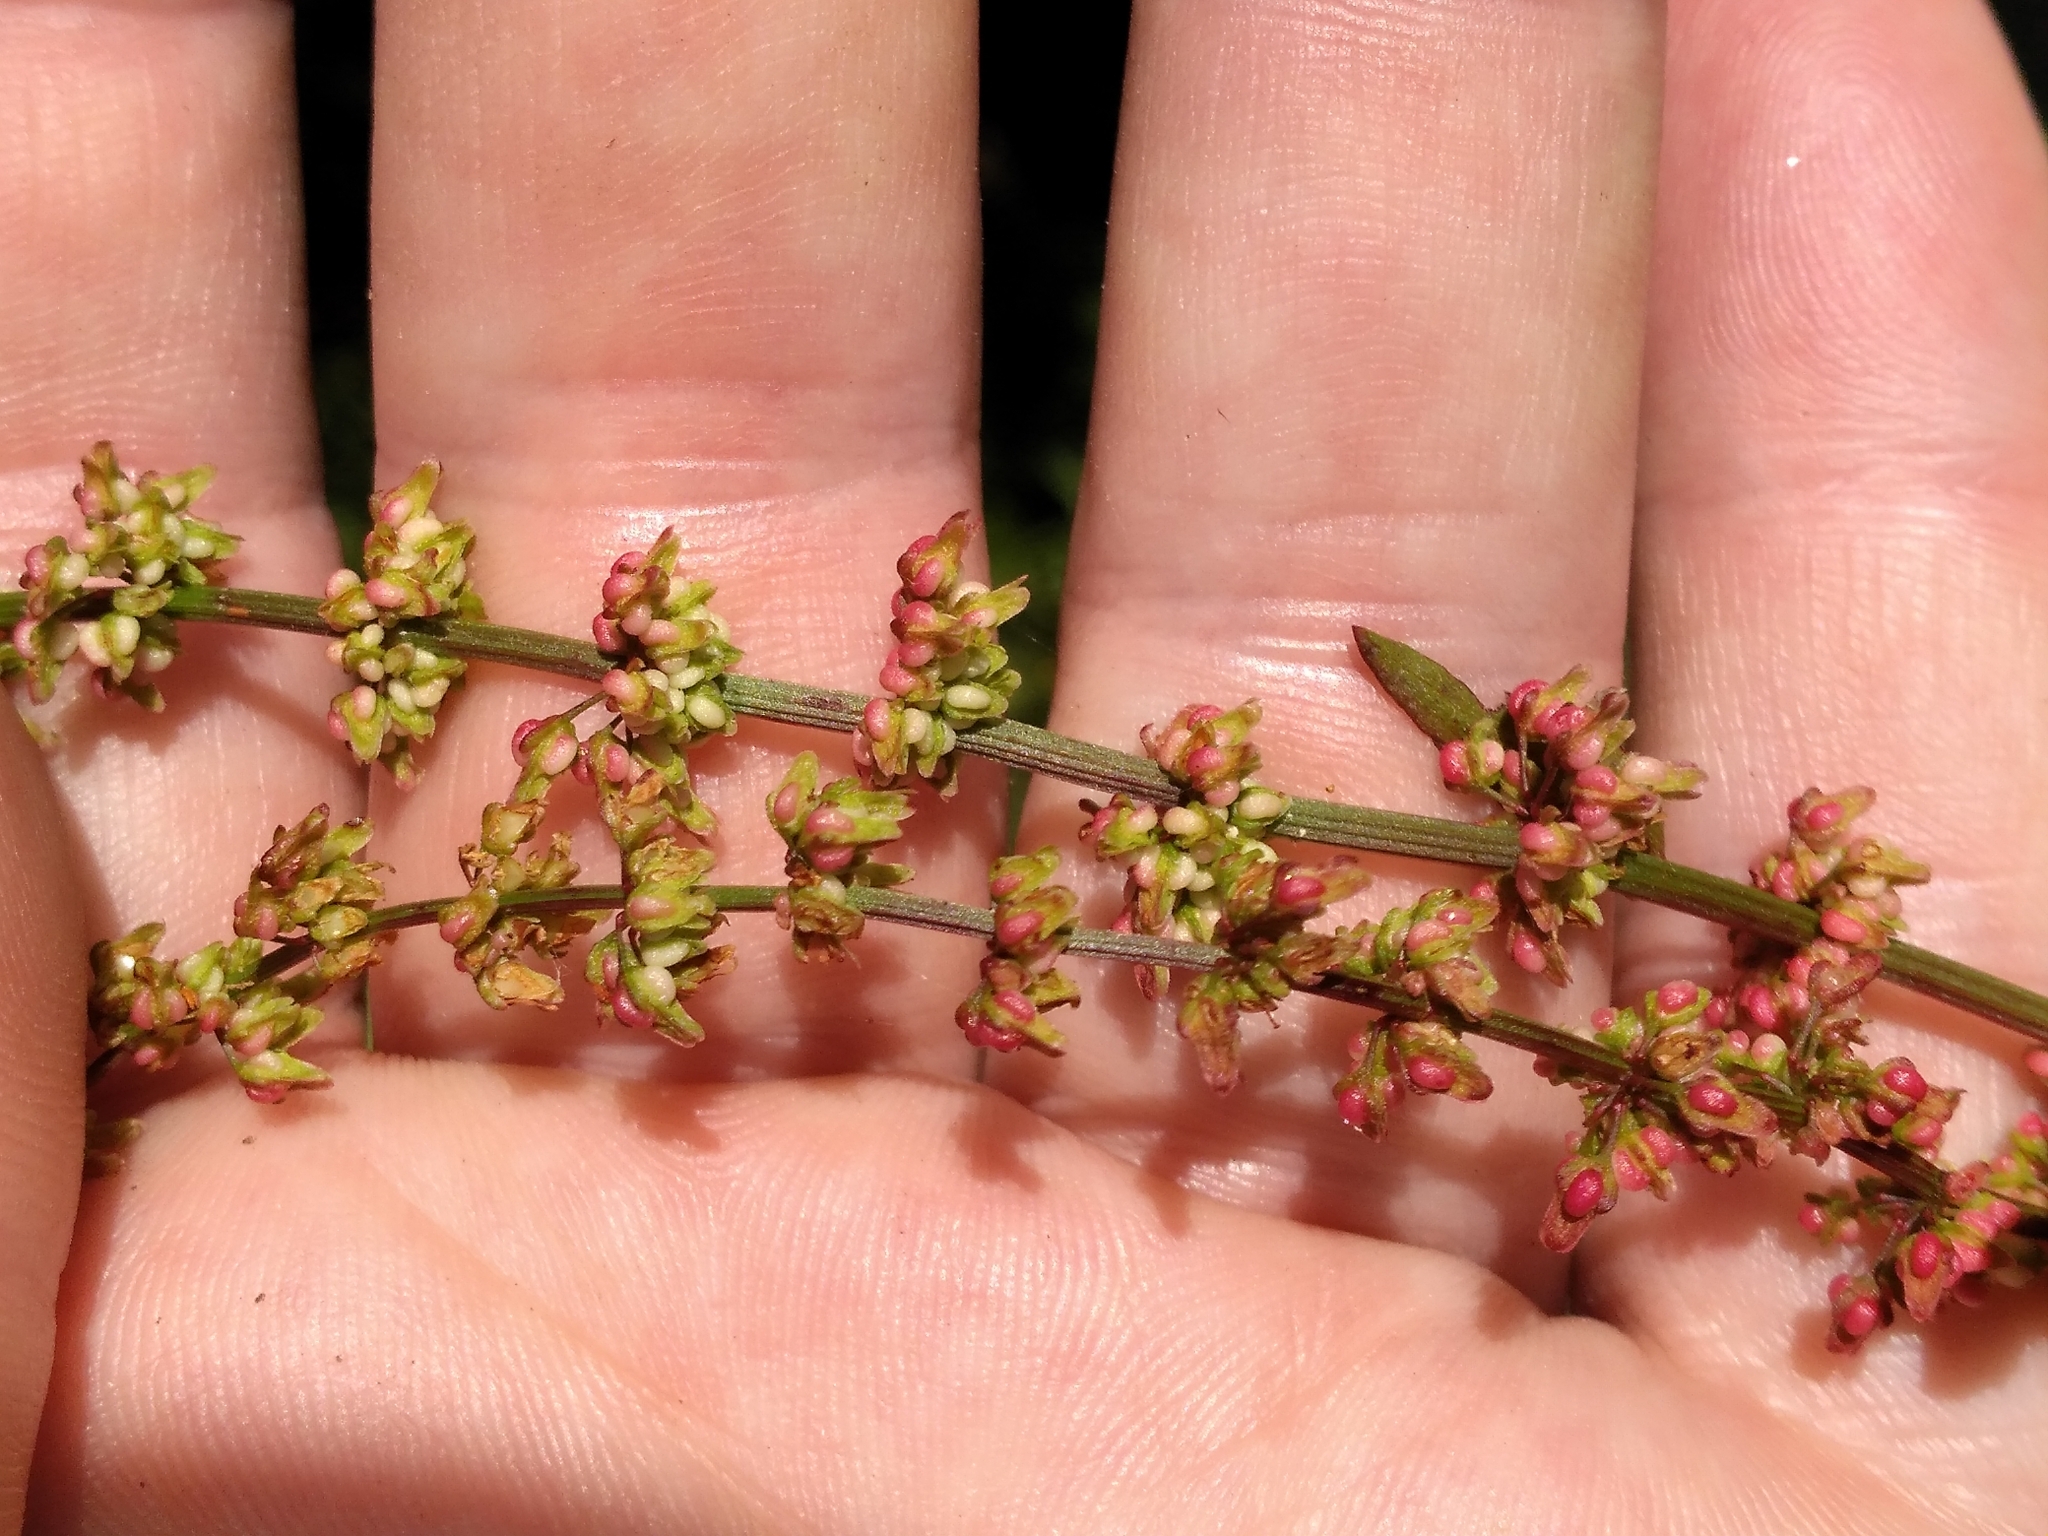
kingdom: Plantae
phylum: Tracheophyta
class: Magnoliopsida
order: Caryophyllales
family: Polygonaceae
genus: Rumex
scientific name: Rumex conglomeratus
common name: Clustered dock
